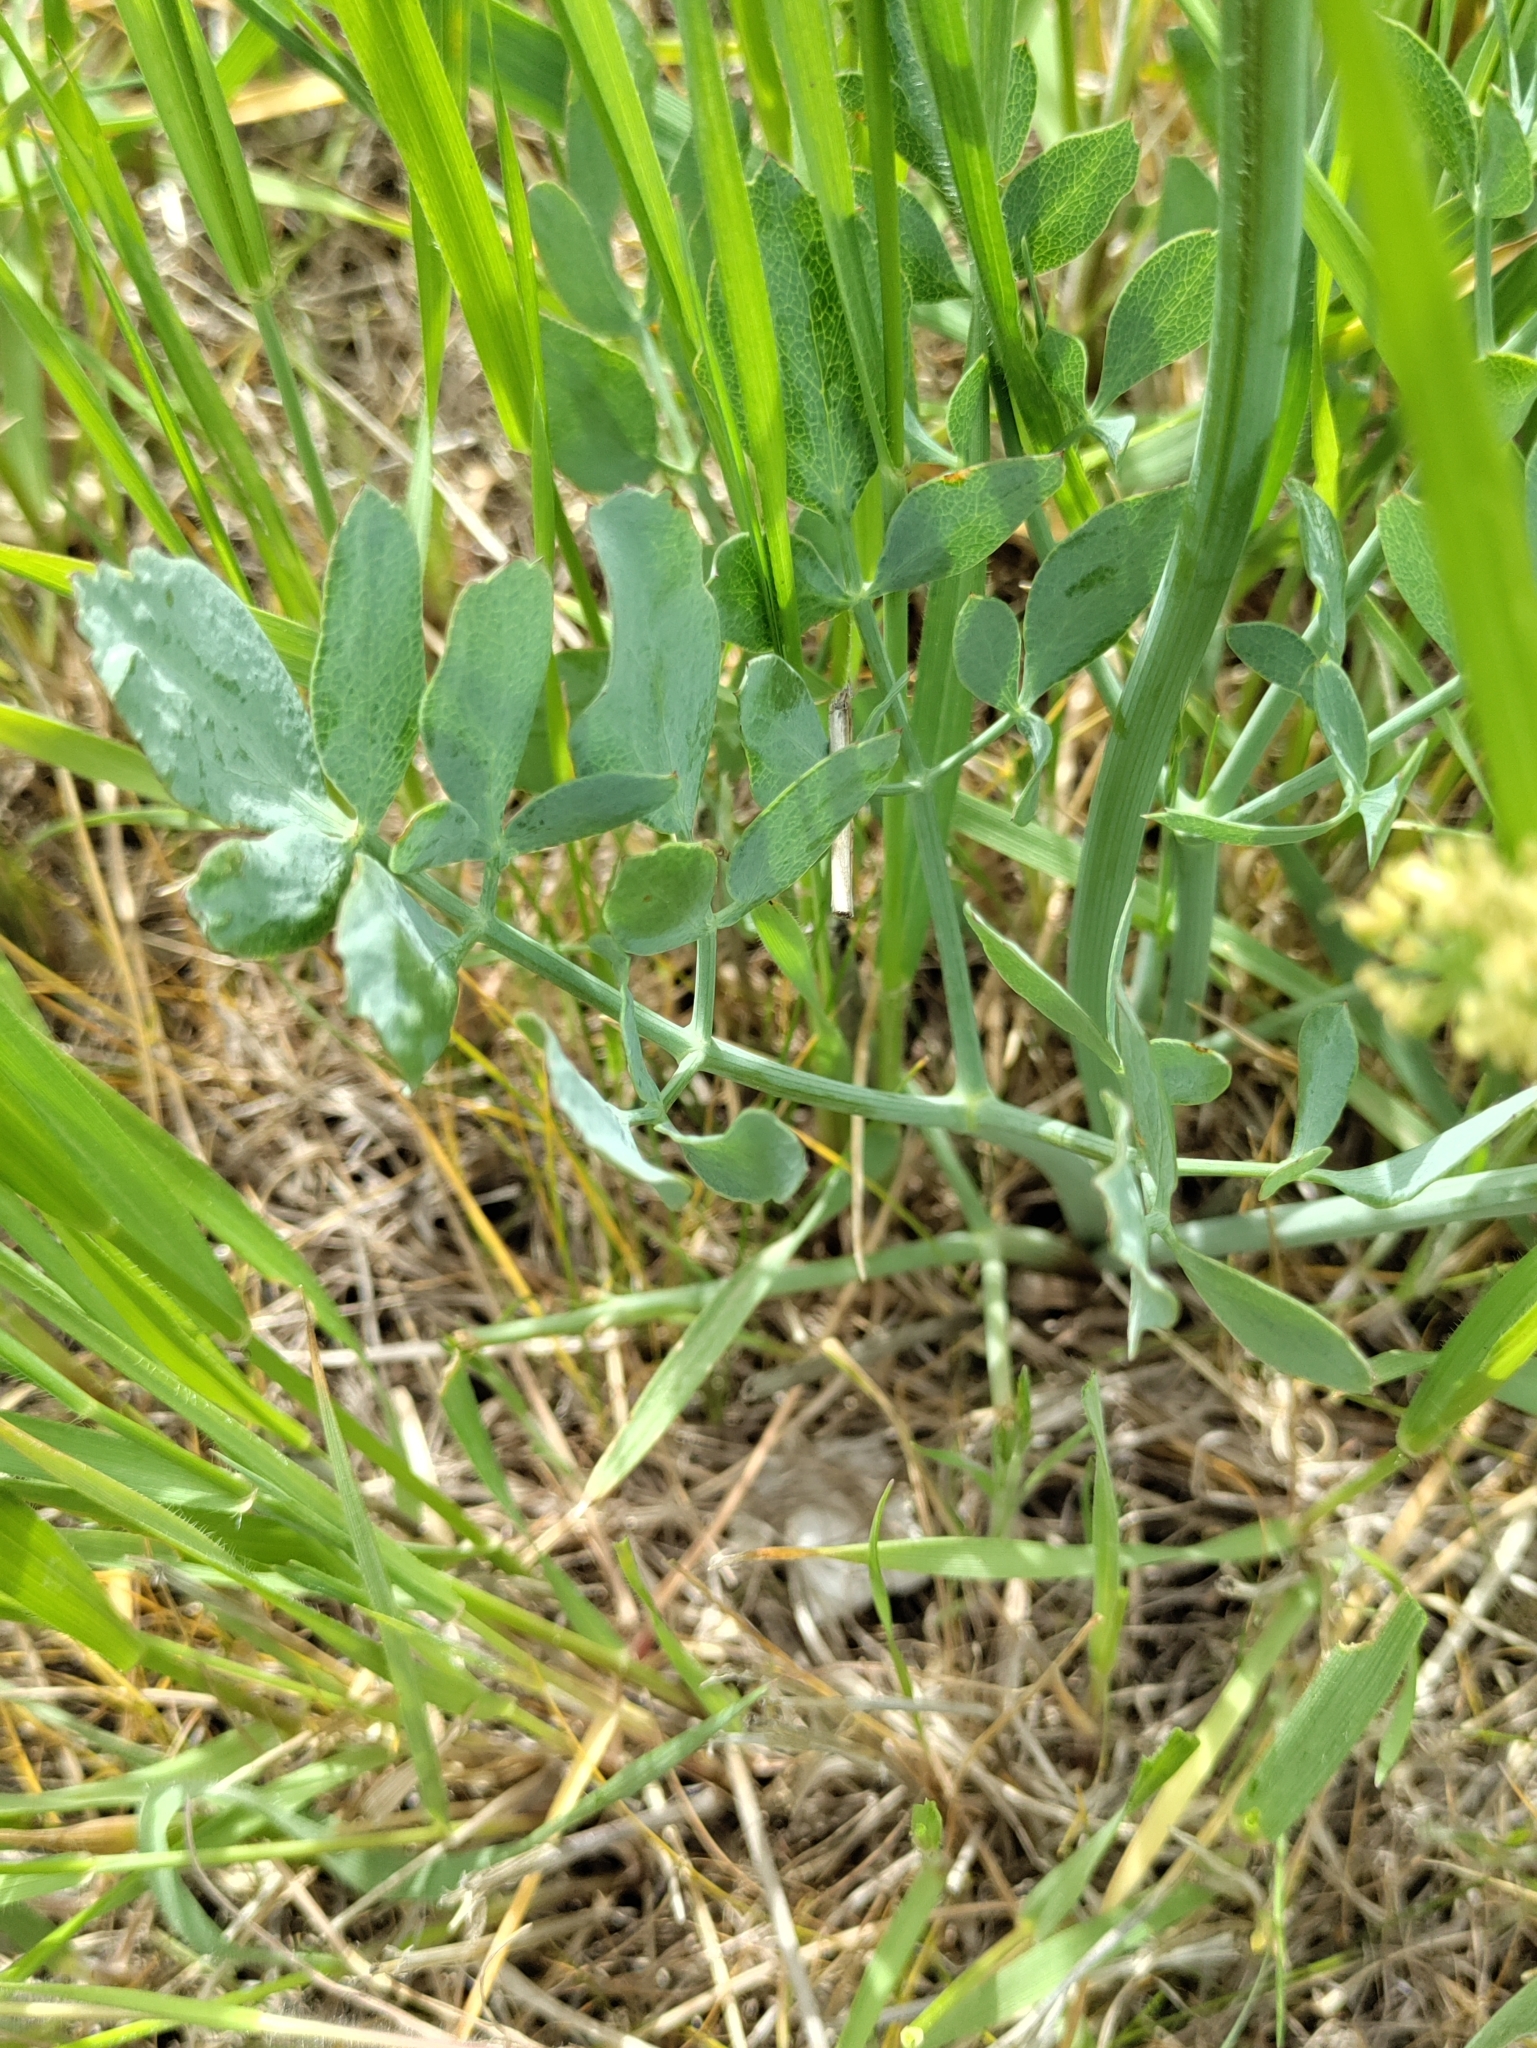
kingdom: Plantae
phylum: Tracheophyta
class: Magnoliopsida
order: Apiales
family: Apiaceae
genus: Lomatium
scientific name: Lomatium nudicaule
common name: Pestle lomatium
